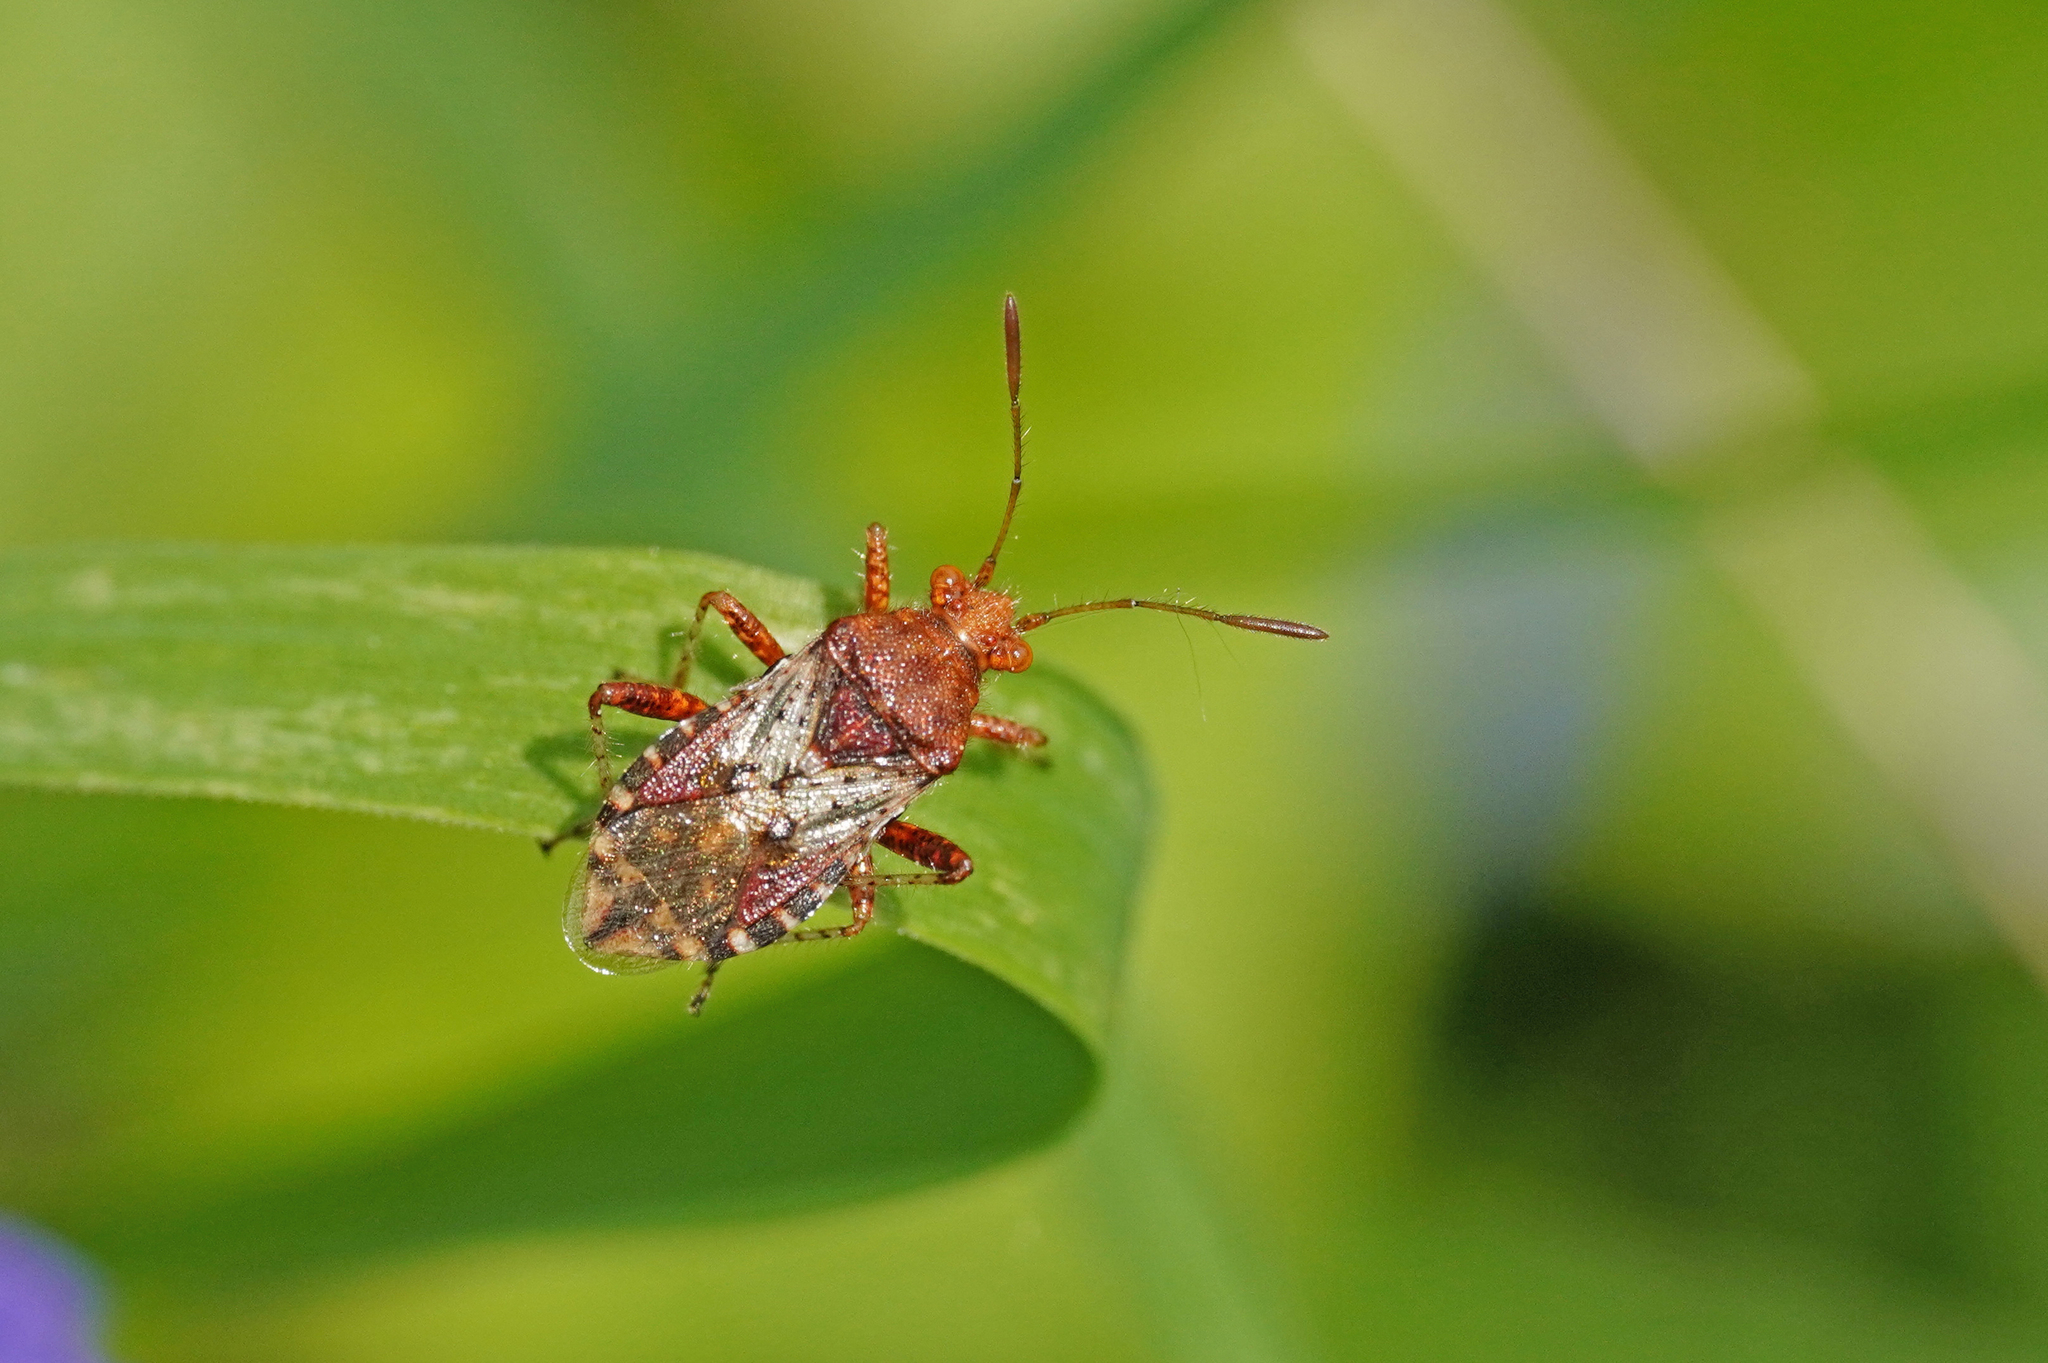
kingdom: Animalia
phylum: Arthropoda
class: Insecta
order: Hemiptera
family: Rhopalidae
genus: Rhopalus
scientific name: Rhopalus subrufus
